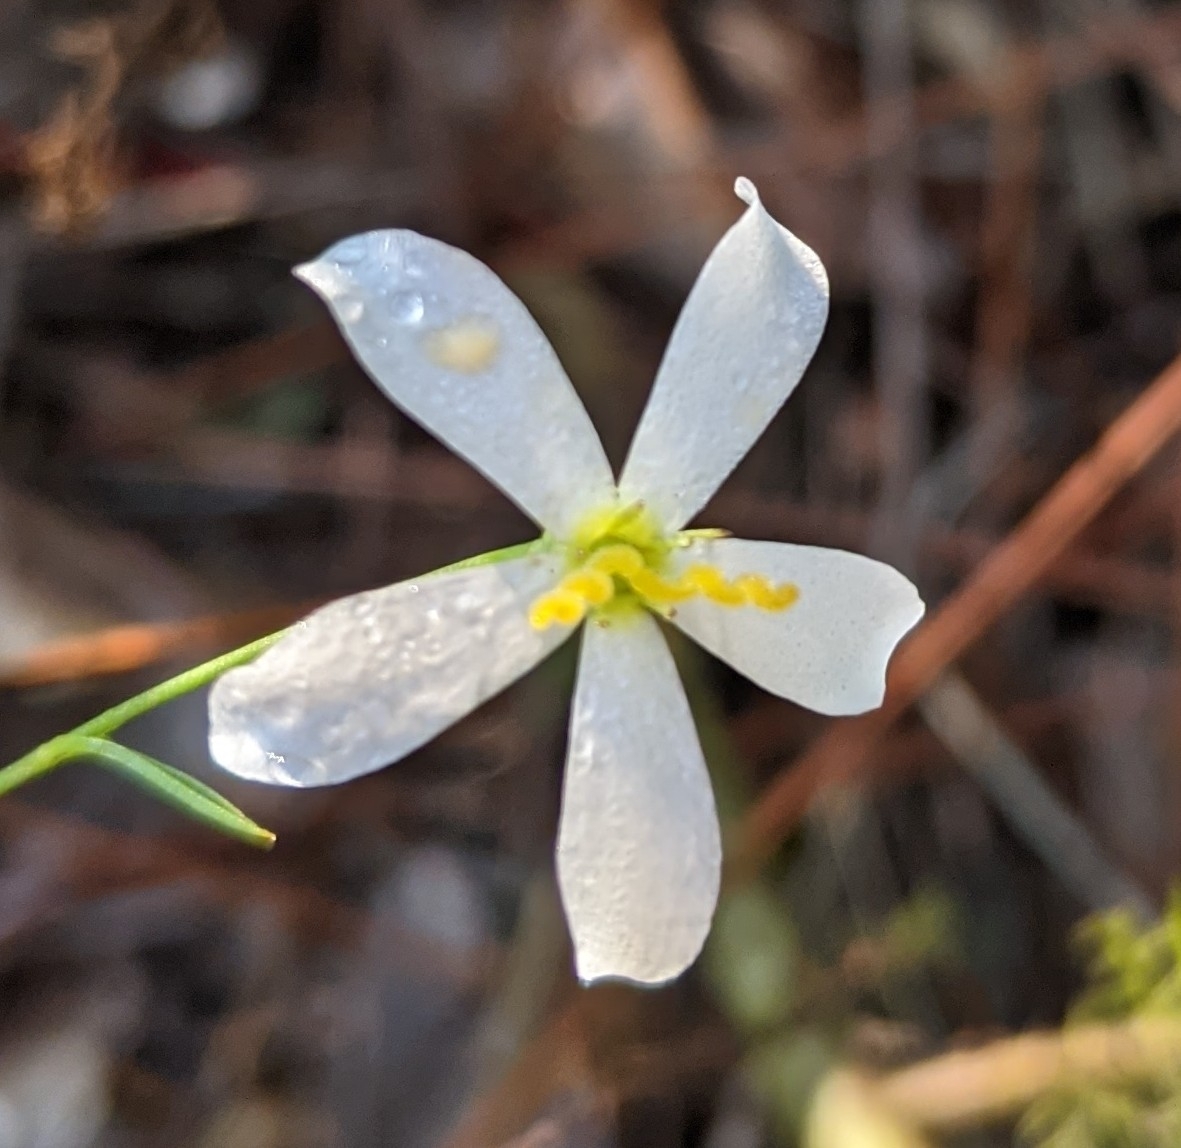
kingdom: Plantae
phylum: Tracheophyta
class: Magnoliopsida
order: Gentianales
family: Gentianaceae
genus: Sabatia
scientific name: Sabatia brevifolia
